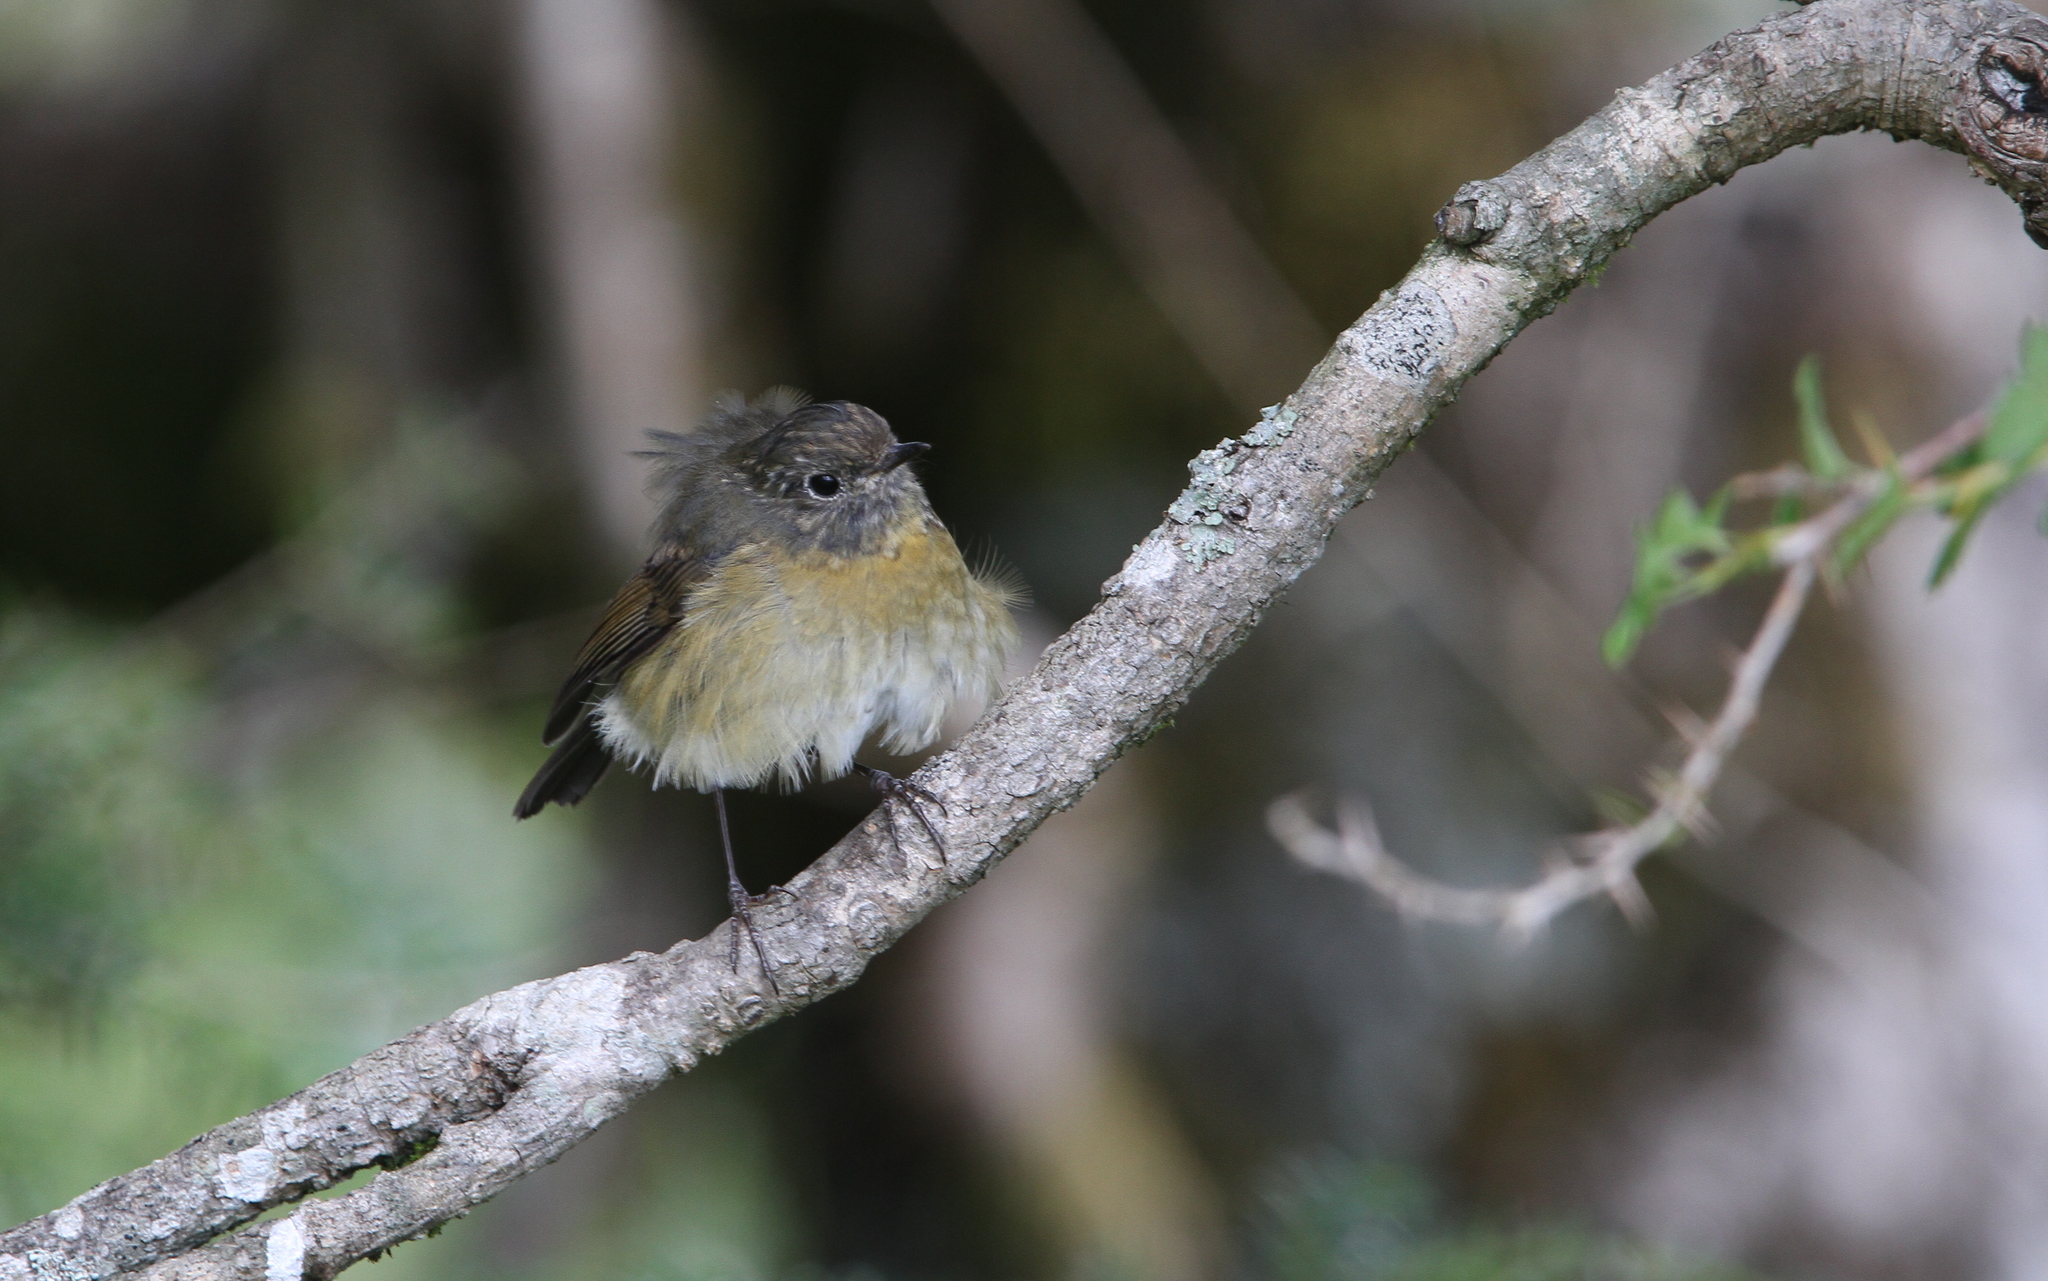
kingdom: Animalia
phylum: Chordata
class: Aves
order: Passeriformes
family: Muscicapidae
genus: Tarsiger
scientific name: Tarsiger johnstoniae
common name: Collared bush robin
